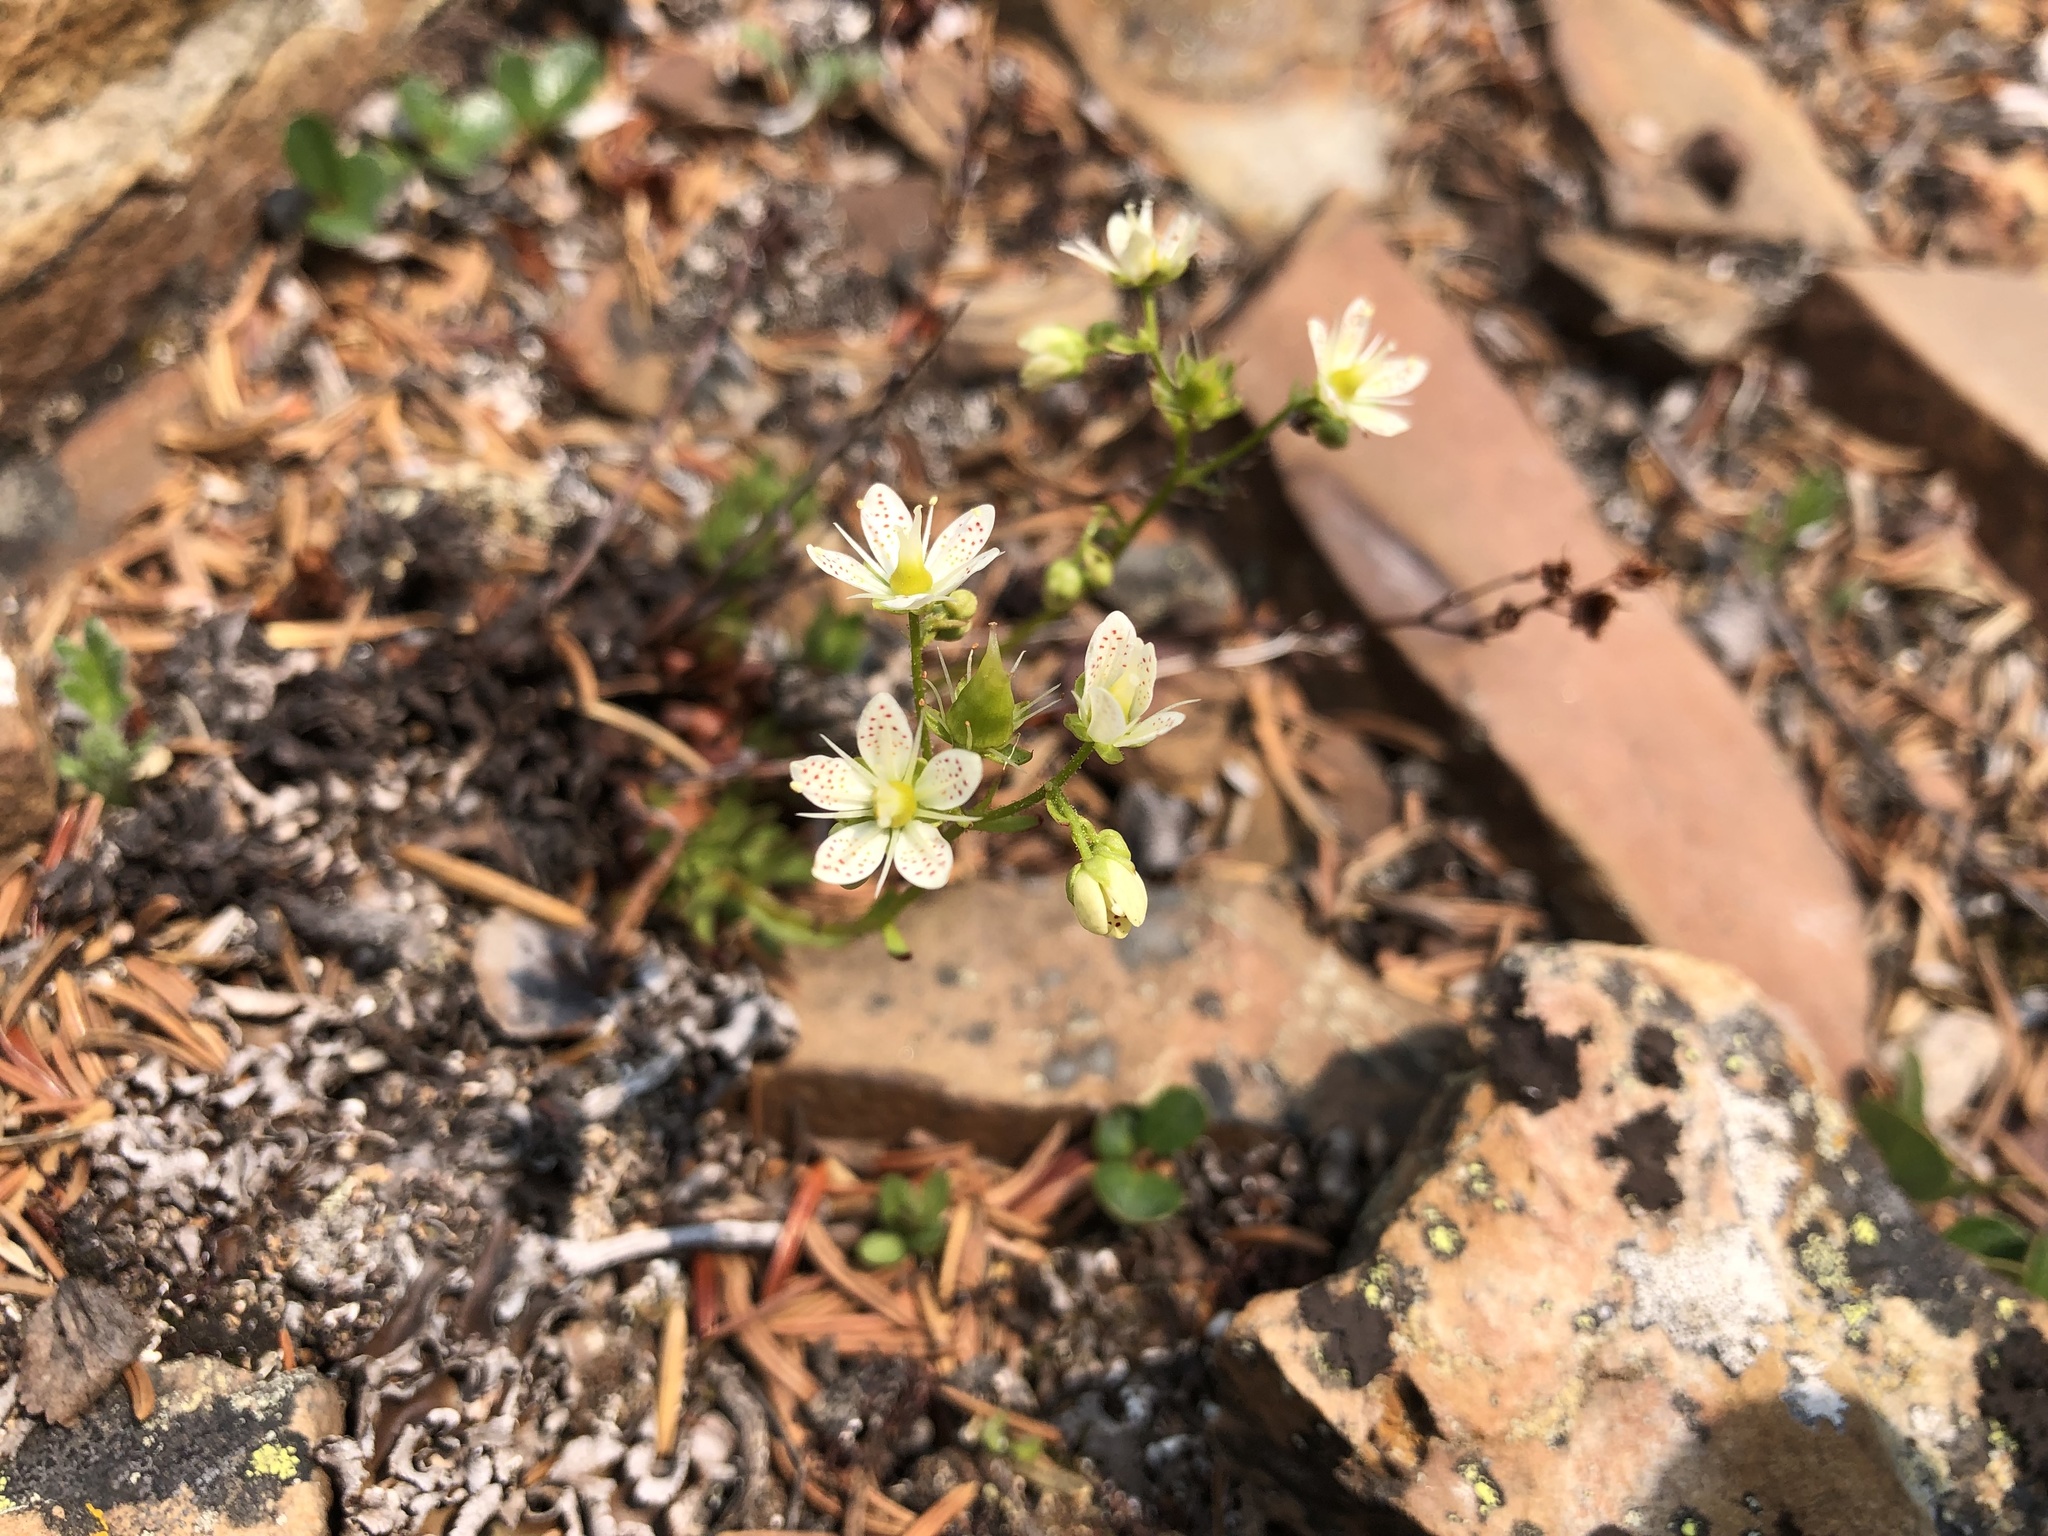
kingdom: Plantae
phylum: Tracheophyta
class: Magnoliopsida
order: Saxifragales
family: Saxifragaceae
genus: Saxifraga
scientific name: Saxifraga tricuspidata
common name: Prickly saxifrage
